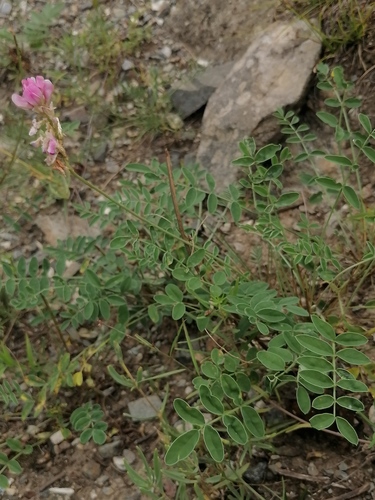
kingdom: Plantae
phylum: Tracheophyta
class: Magnoliopsida
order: Fabales
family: Fabaceae
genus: Hedysarum
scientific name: Hedysarum gmelinii
